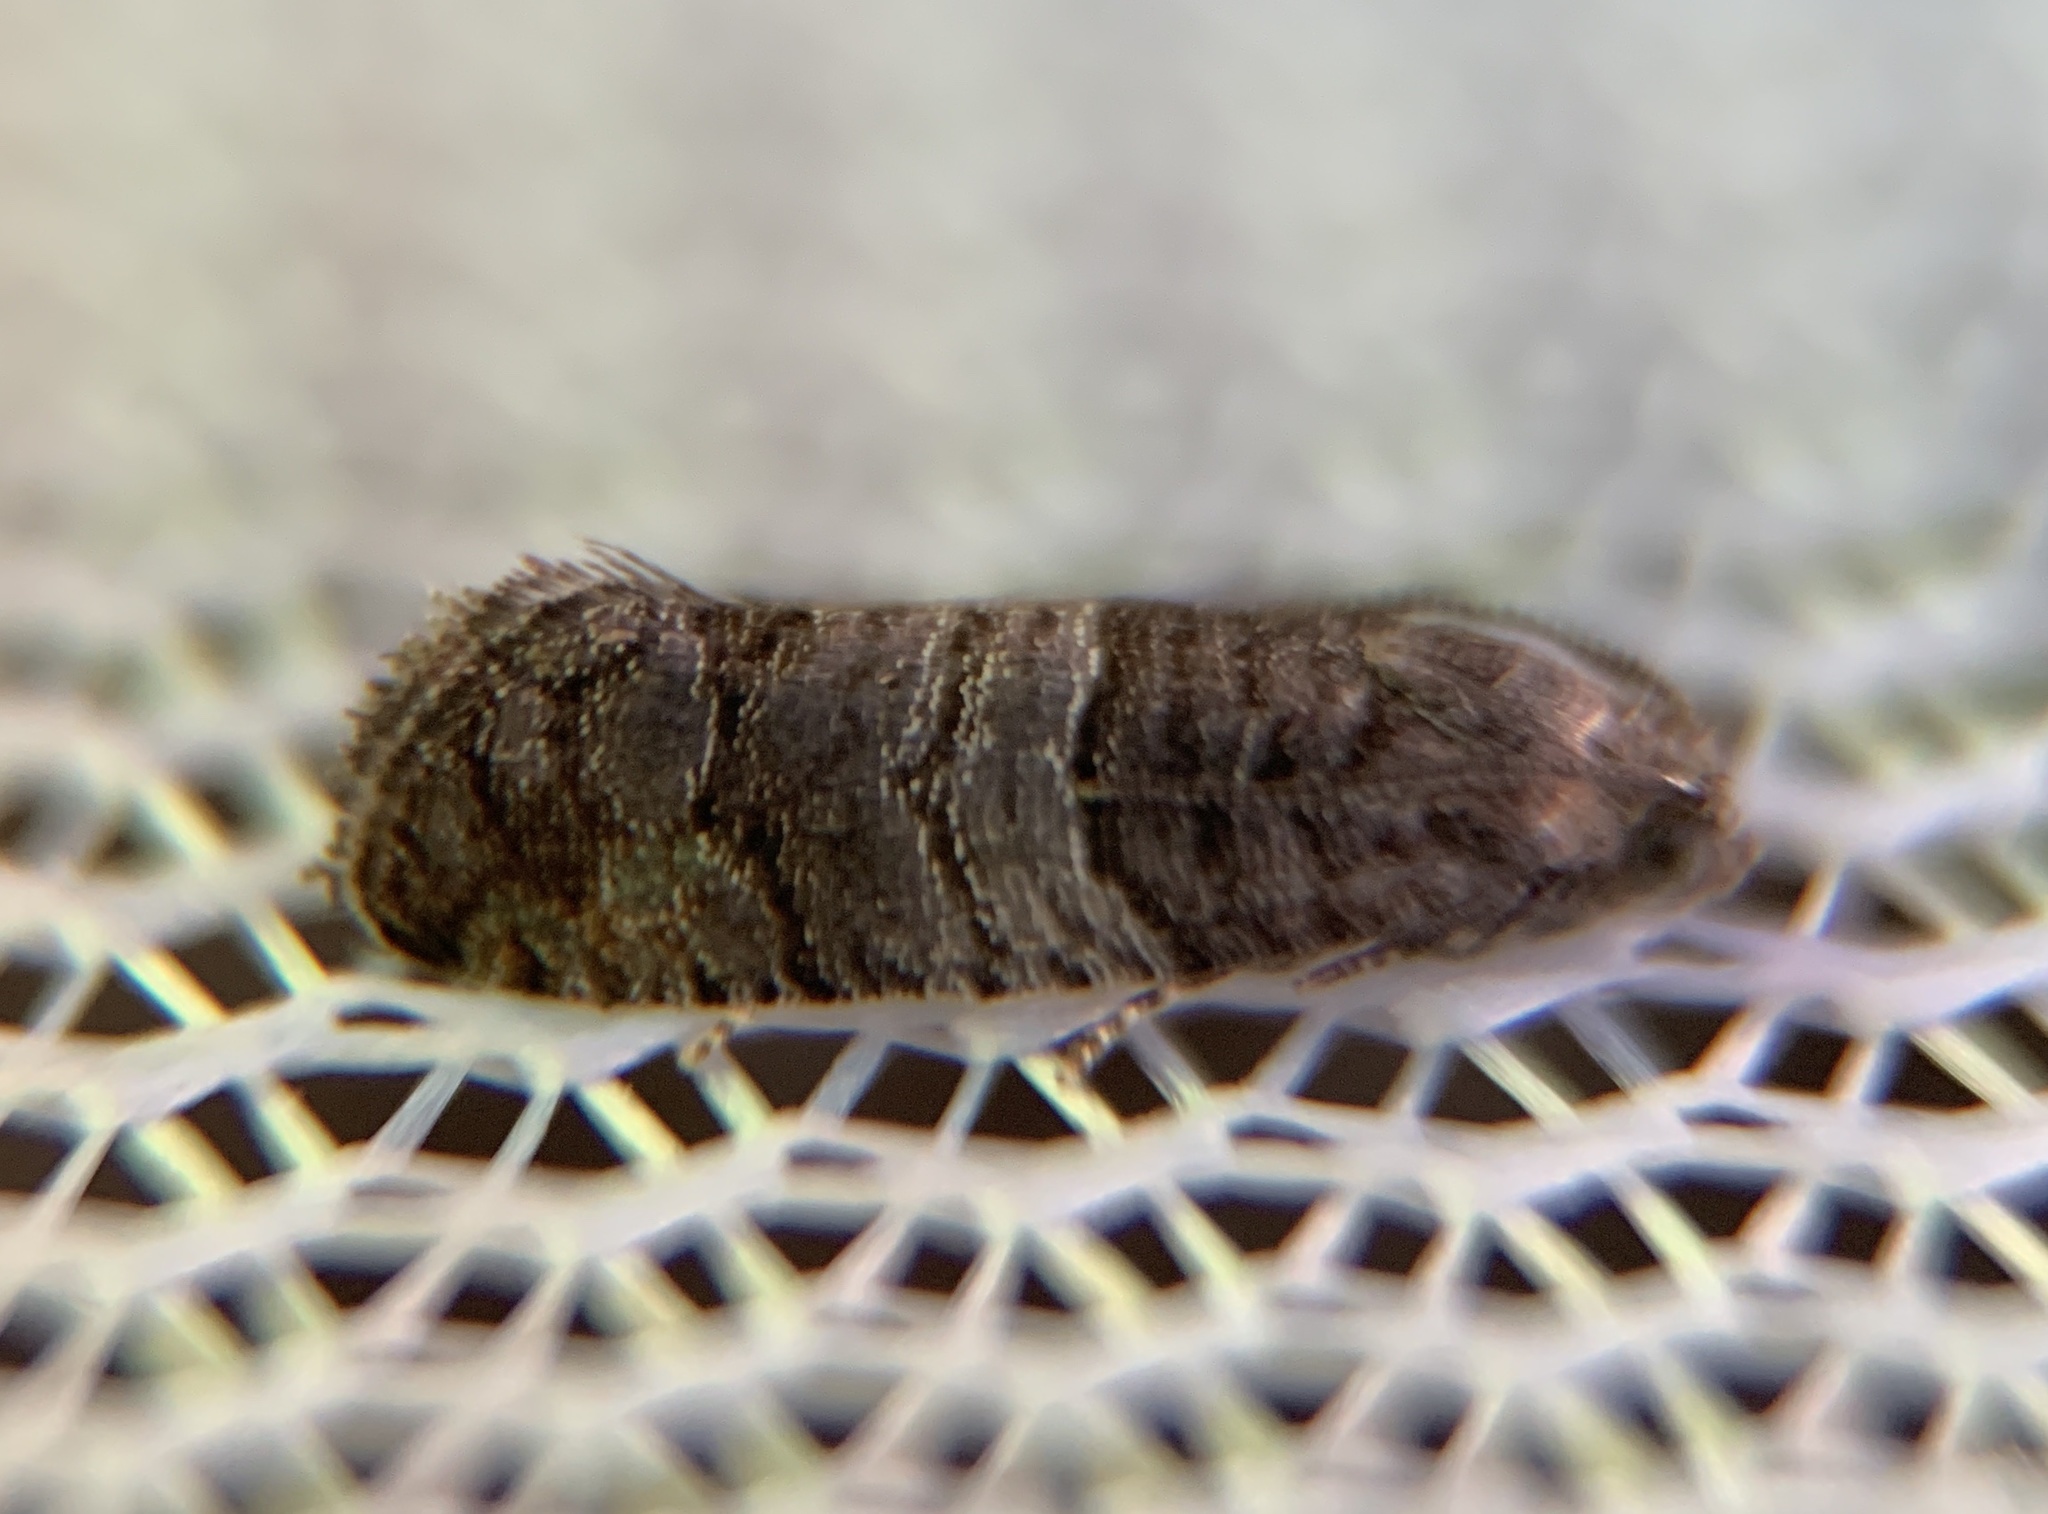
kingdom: Animalia
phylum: Arthropoda
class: Insecta
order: Lepidoptera
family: Tortricidae
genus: Larisa
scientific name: Larisa subsolana
